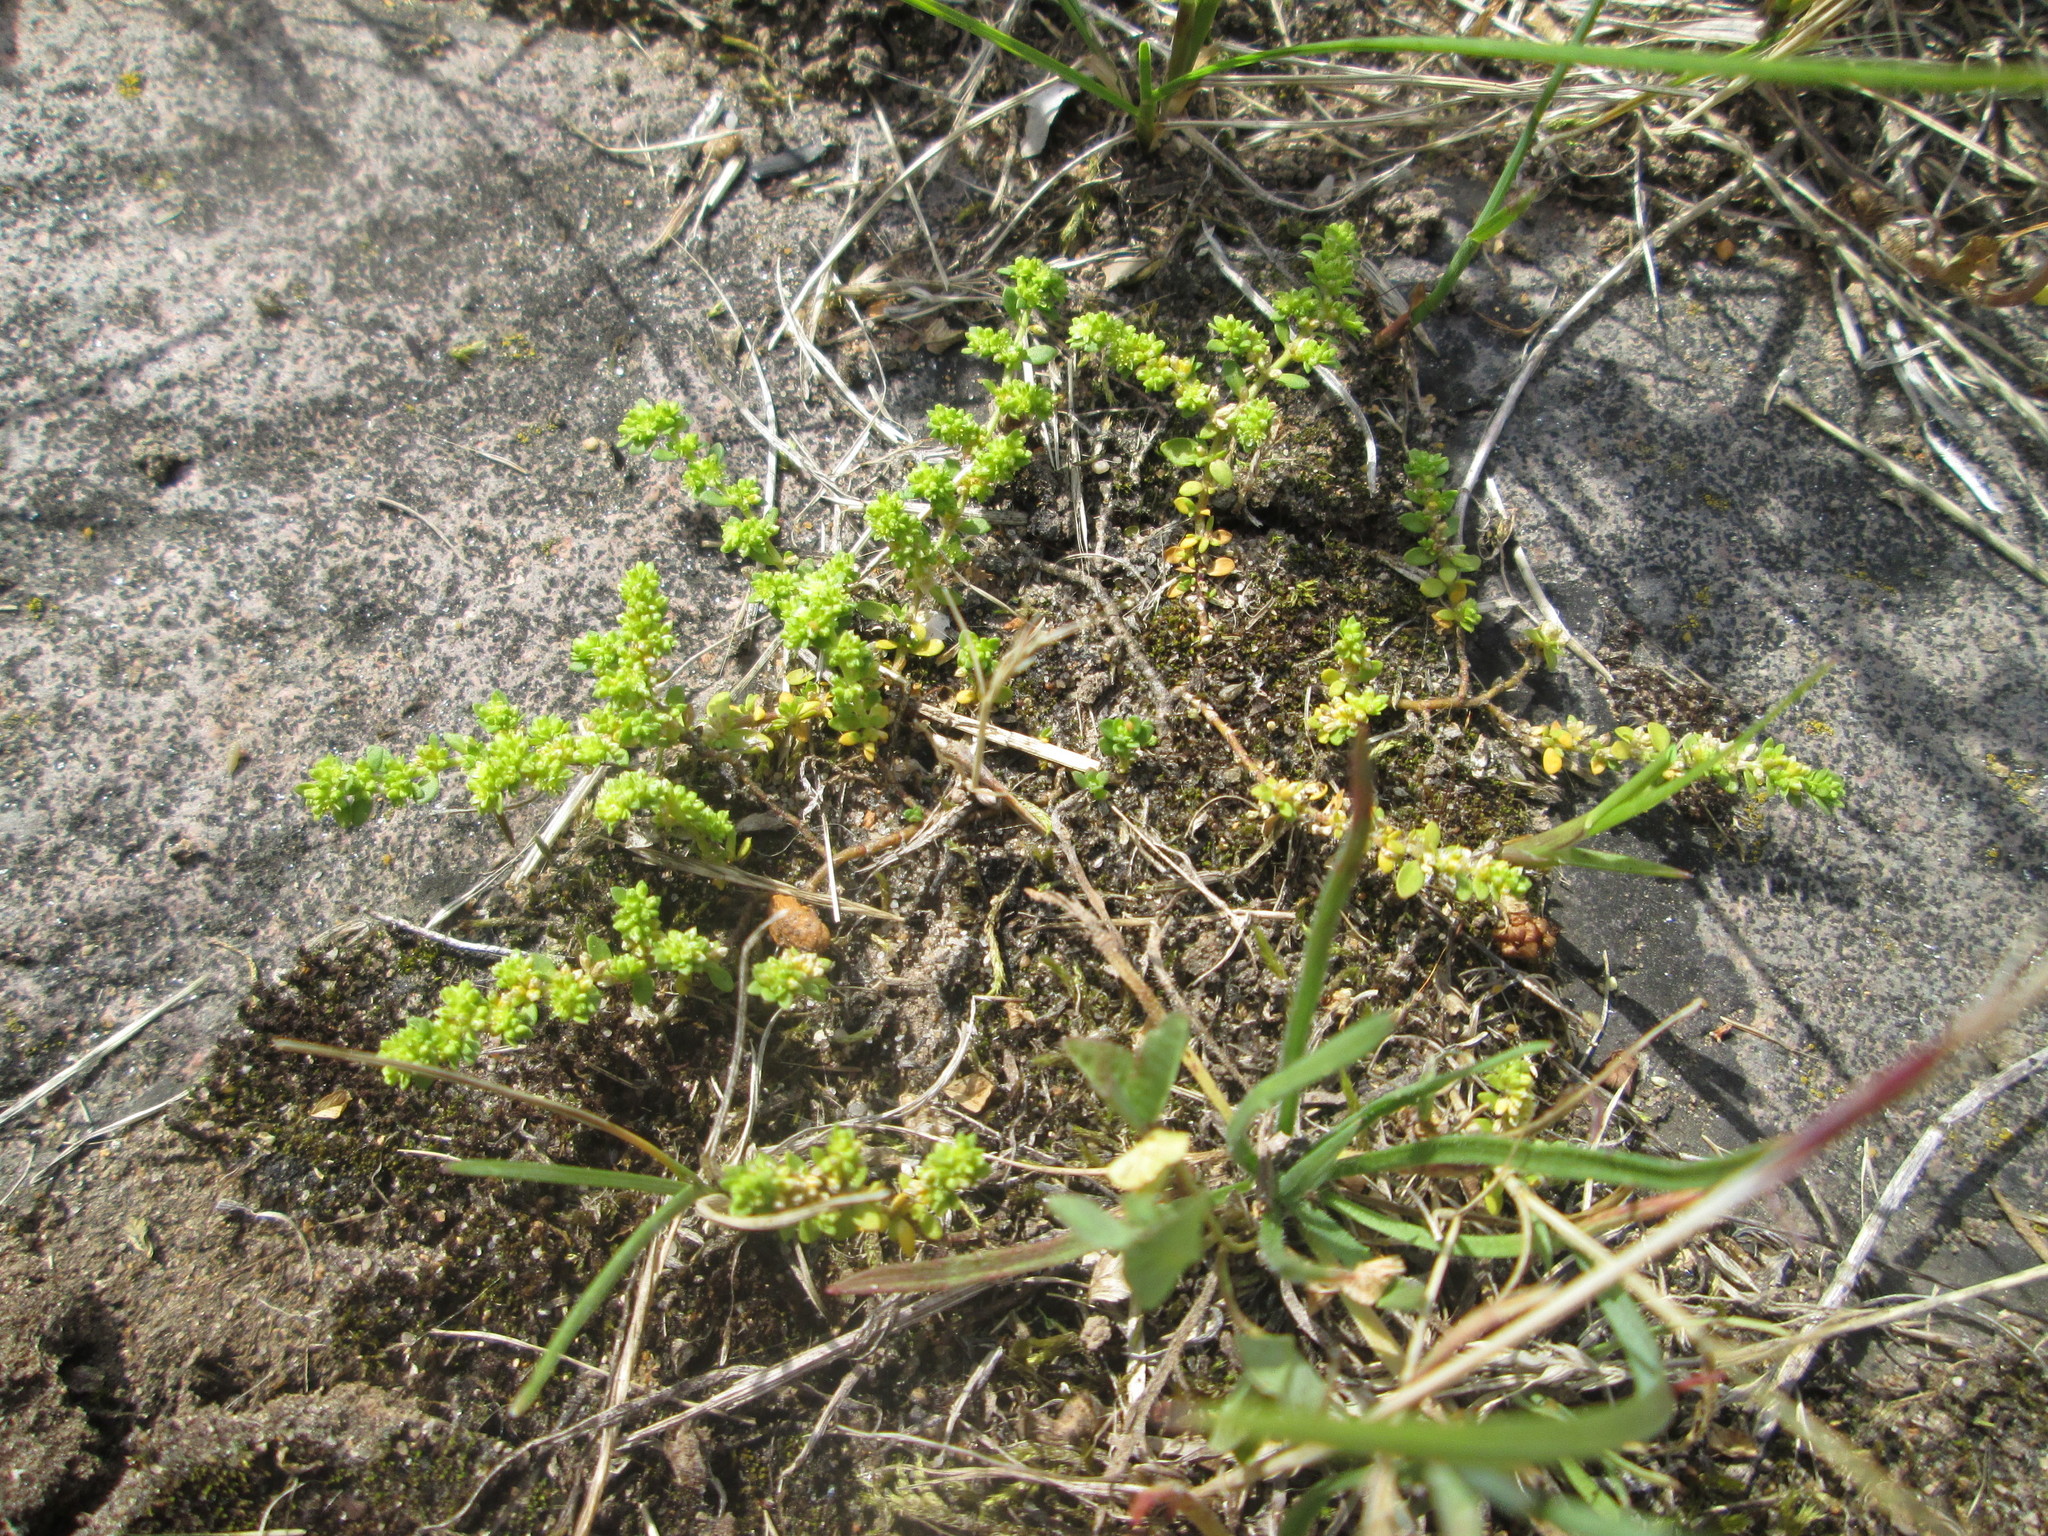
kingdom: Plantae
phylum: Tracheophyta
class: Magnoliopsida
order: Caryophyllales
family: Caryophyllaceae
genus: Herniaria
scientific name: Herniaria glabra
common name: Smooth rupturewort
